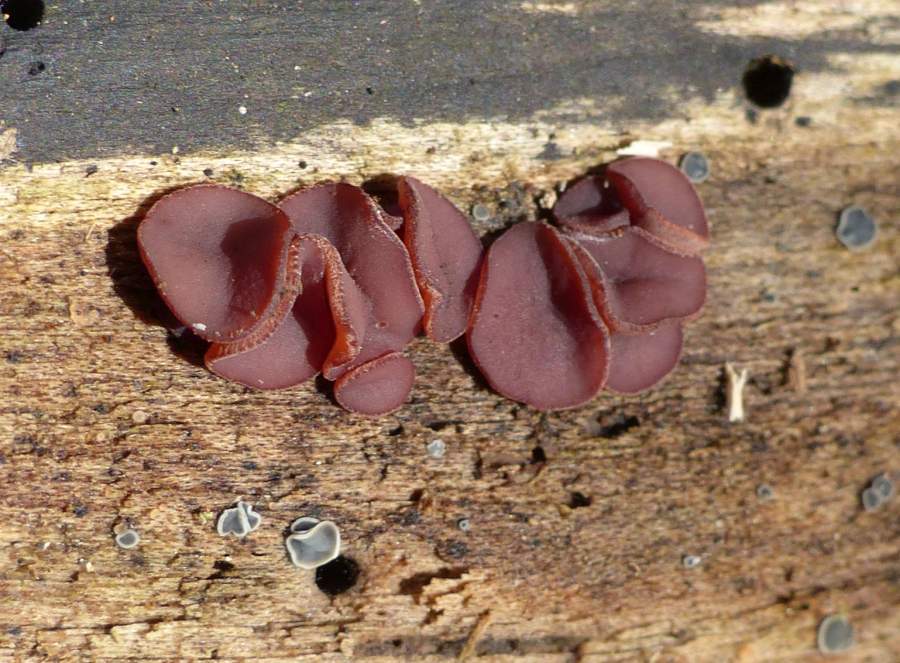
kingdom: Fungi
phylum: Ascomycota
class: Leotiomycetes
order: Helotiales
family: Gelatinodiscaceae
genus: Ascocoryne
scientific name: Ascocoryne cylichnium
